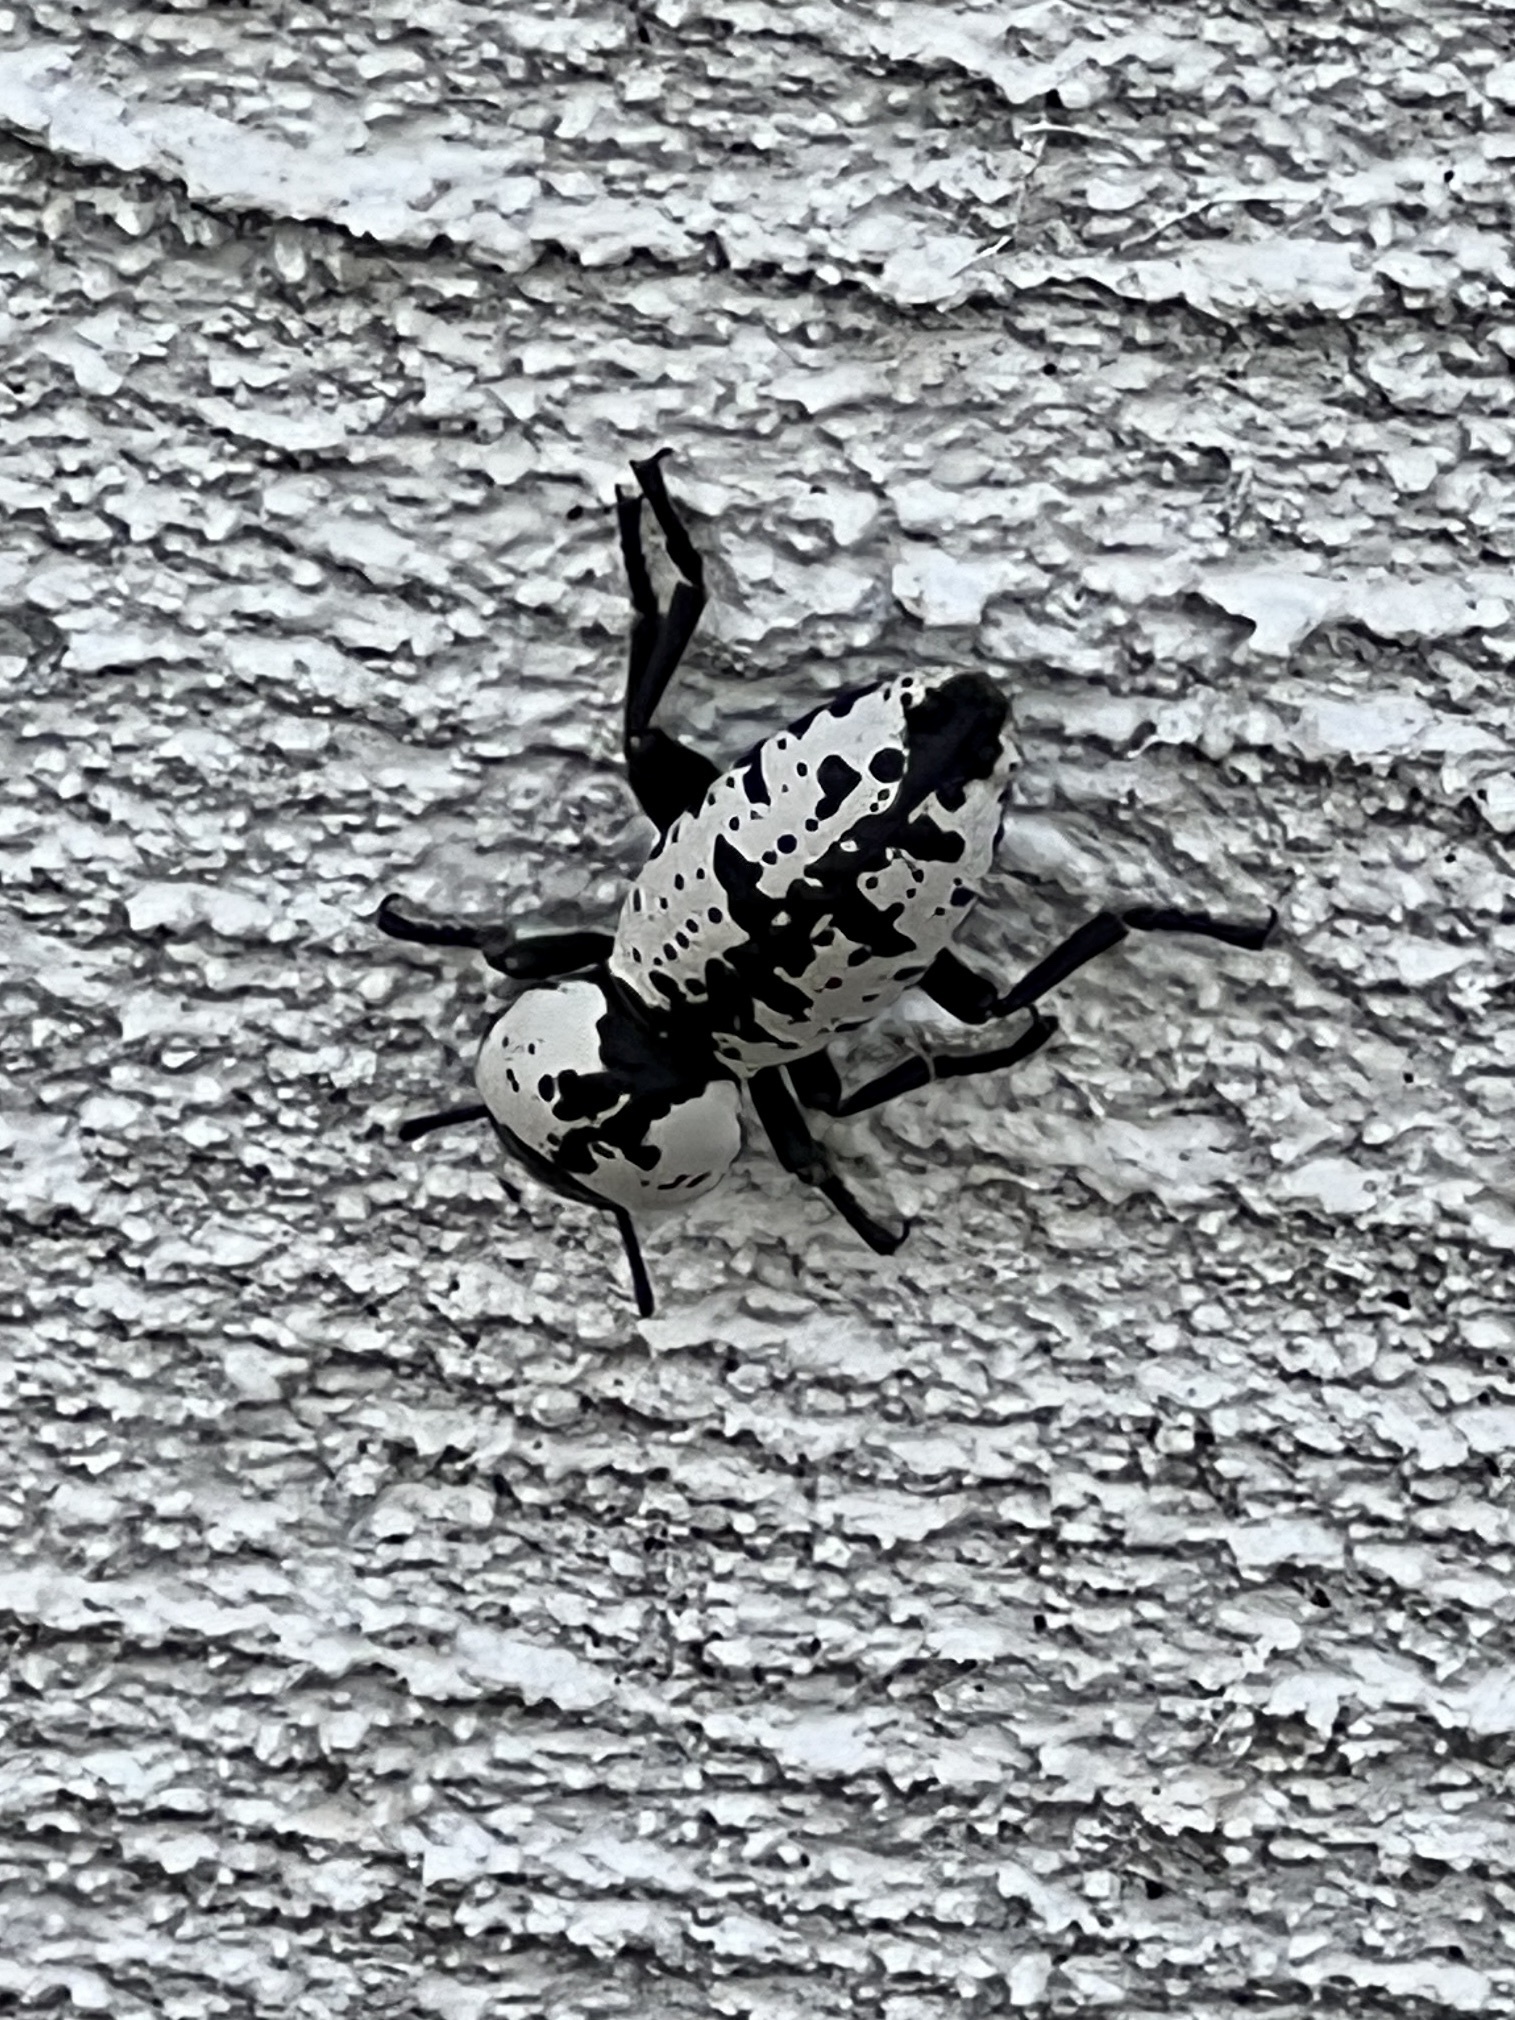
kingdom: Animalia
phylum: Arthropoda
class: Insecta
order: Coleoptera
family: Zopheridae
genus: Zopherus
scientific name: Zopherus nodulosus
